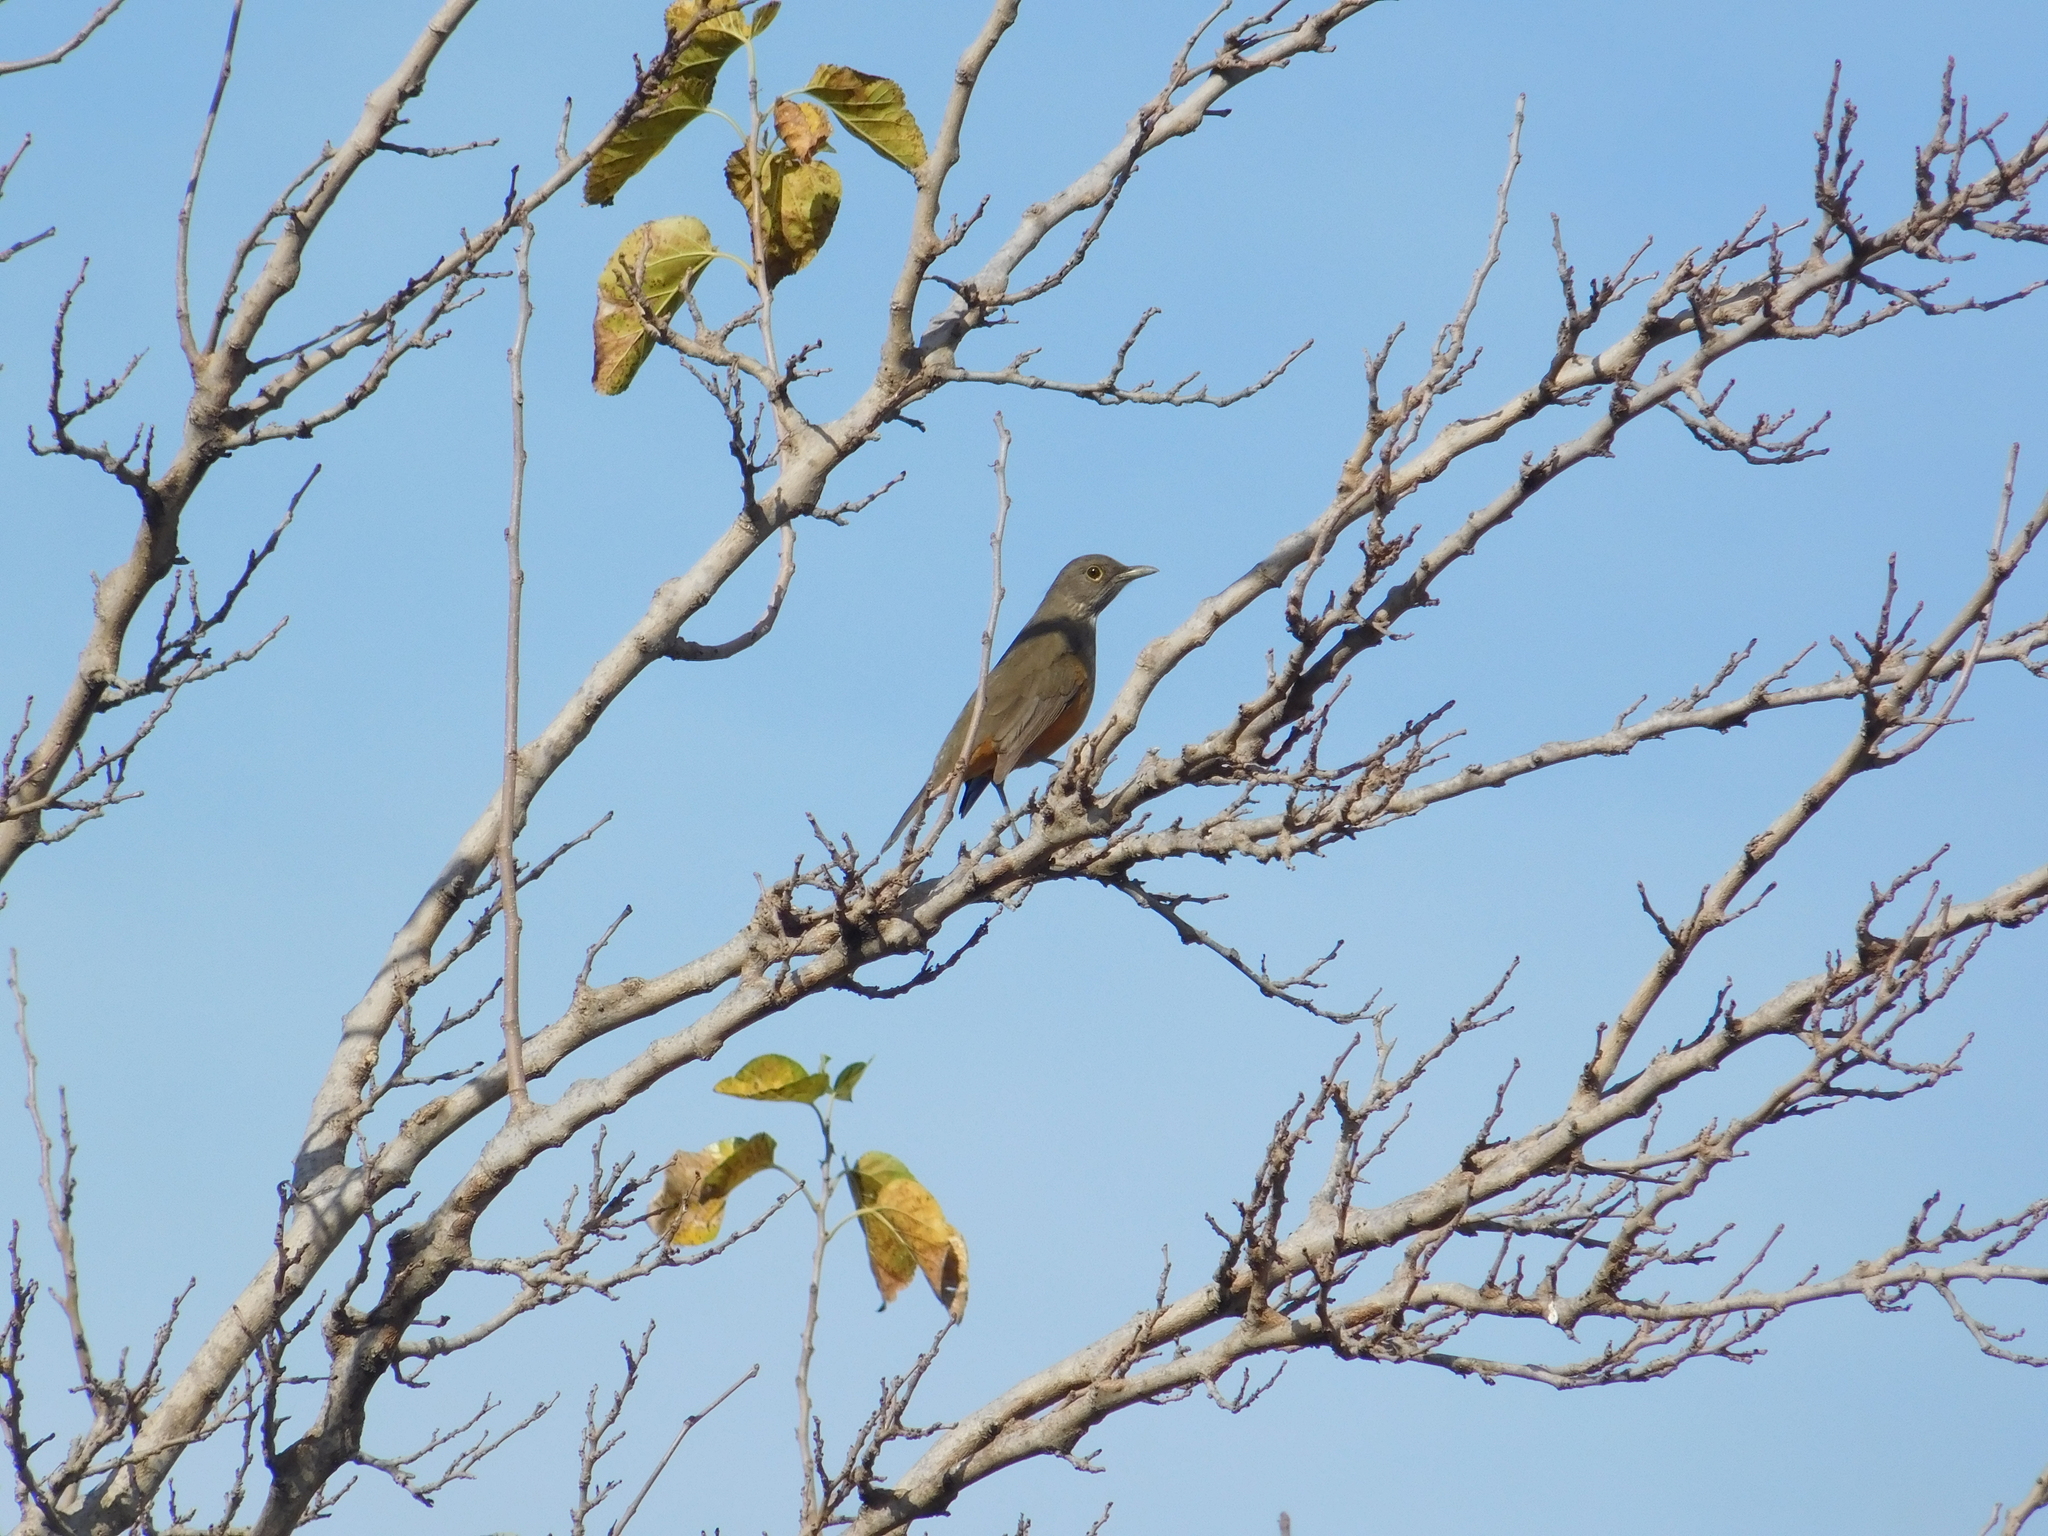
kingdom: Animalia
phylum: Chordata
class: Aves
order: Passeriformes
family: Turdidae
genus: Turdus
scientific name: Turdus rufiventris
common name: Rufous-bellied thrush
